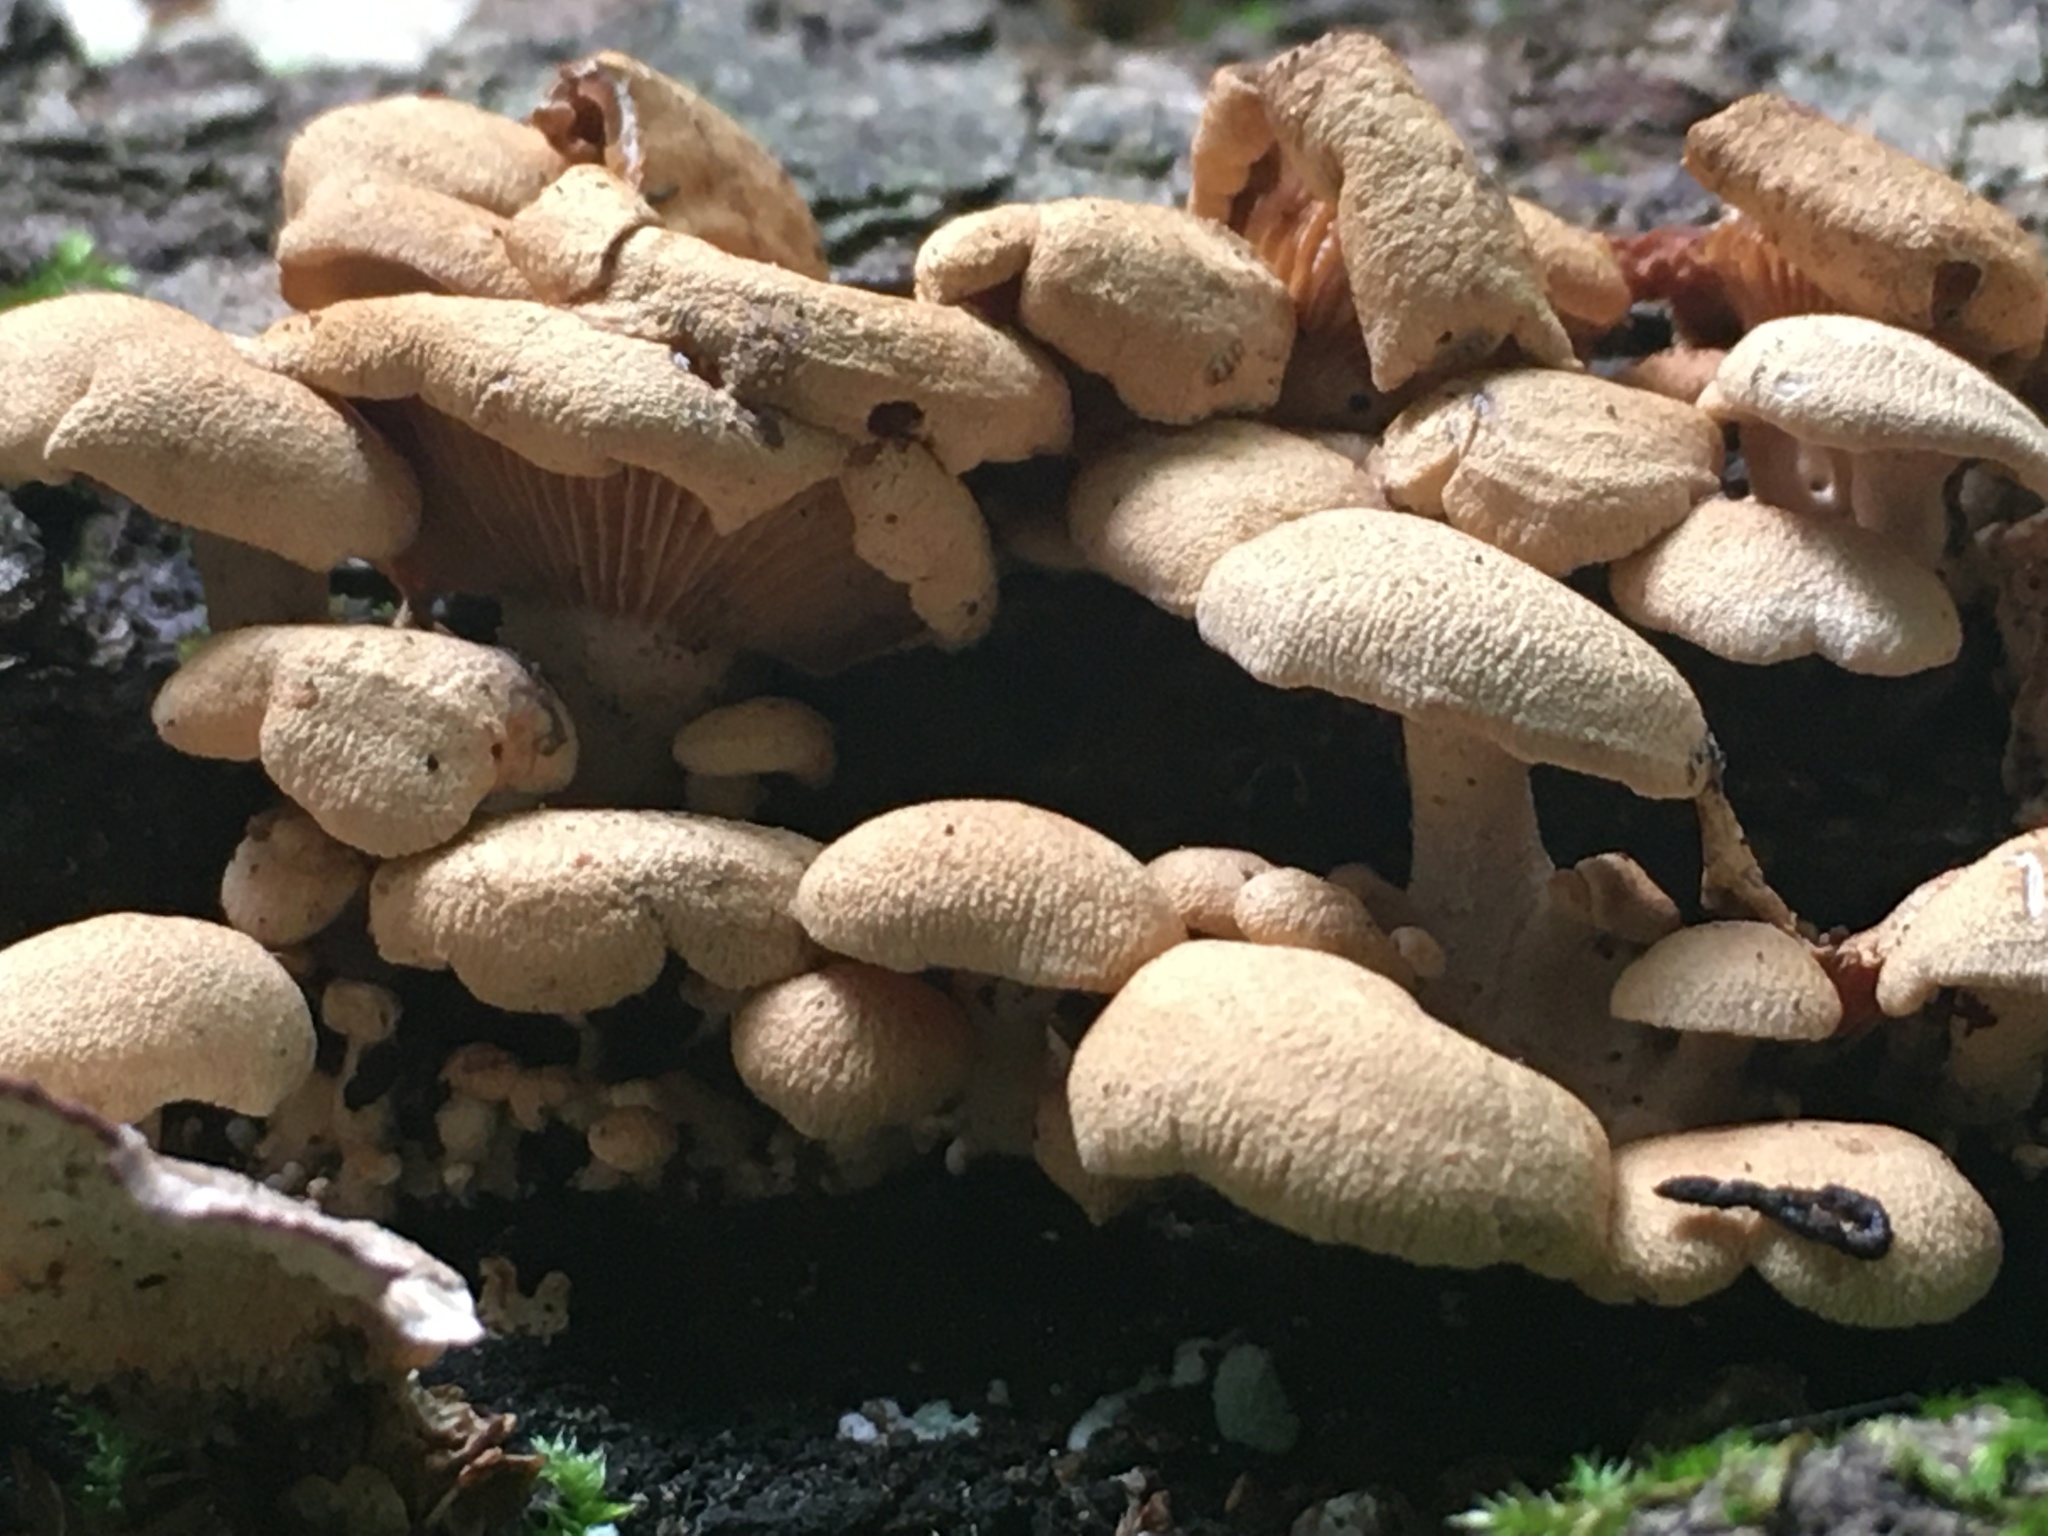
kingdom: Fungi
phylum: Basidiomycota
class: Agaricomycetes
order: Agaricales
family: Mycenaceae
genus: Panellus
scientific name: Panellus stipticus
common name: Bitter oysterling
